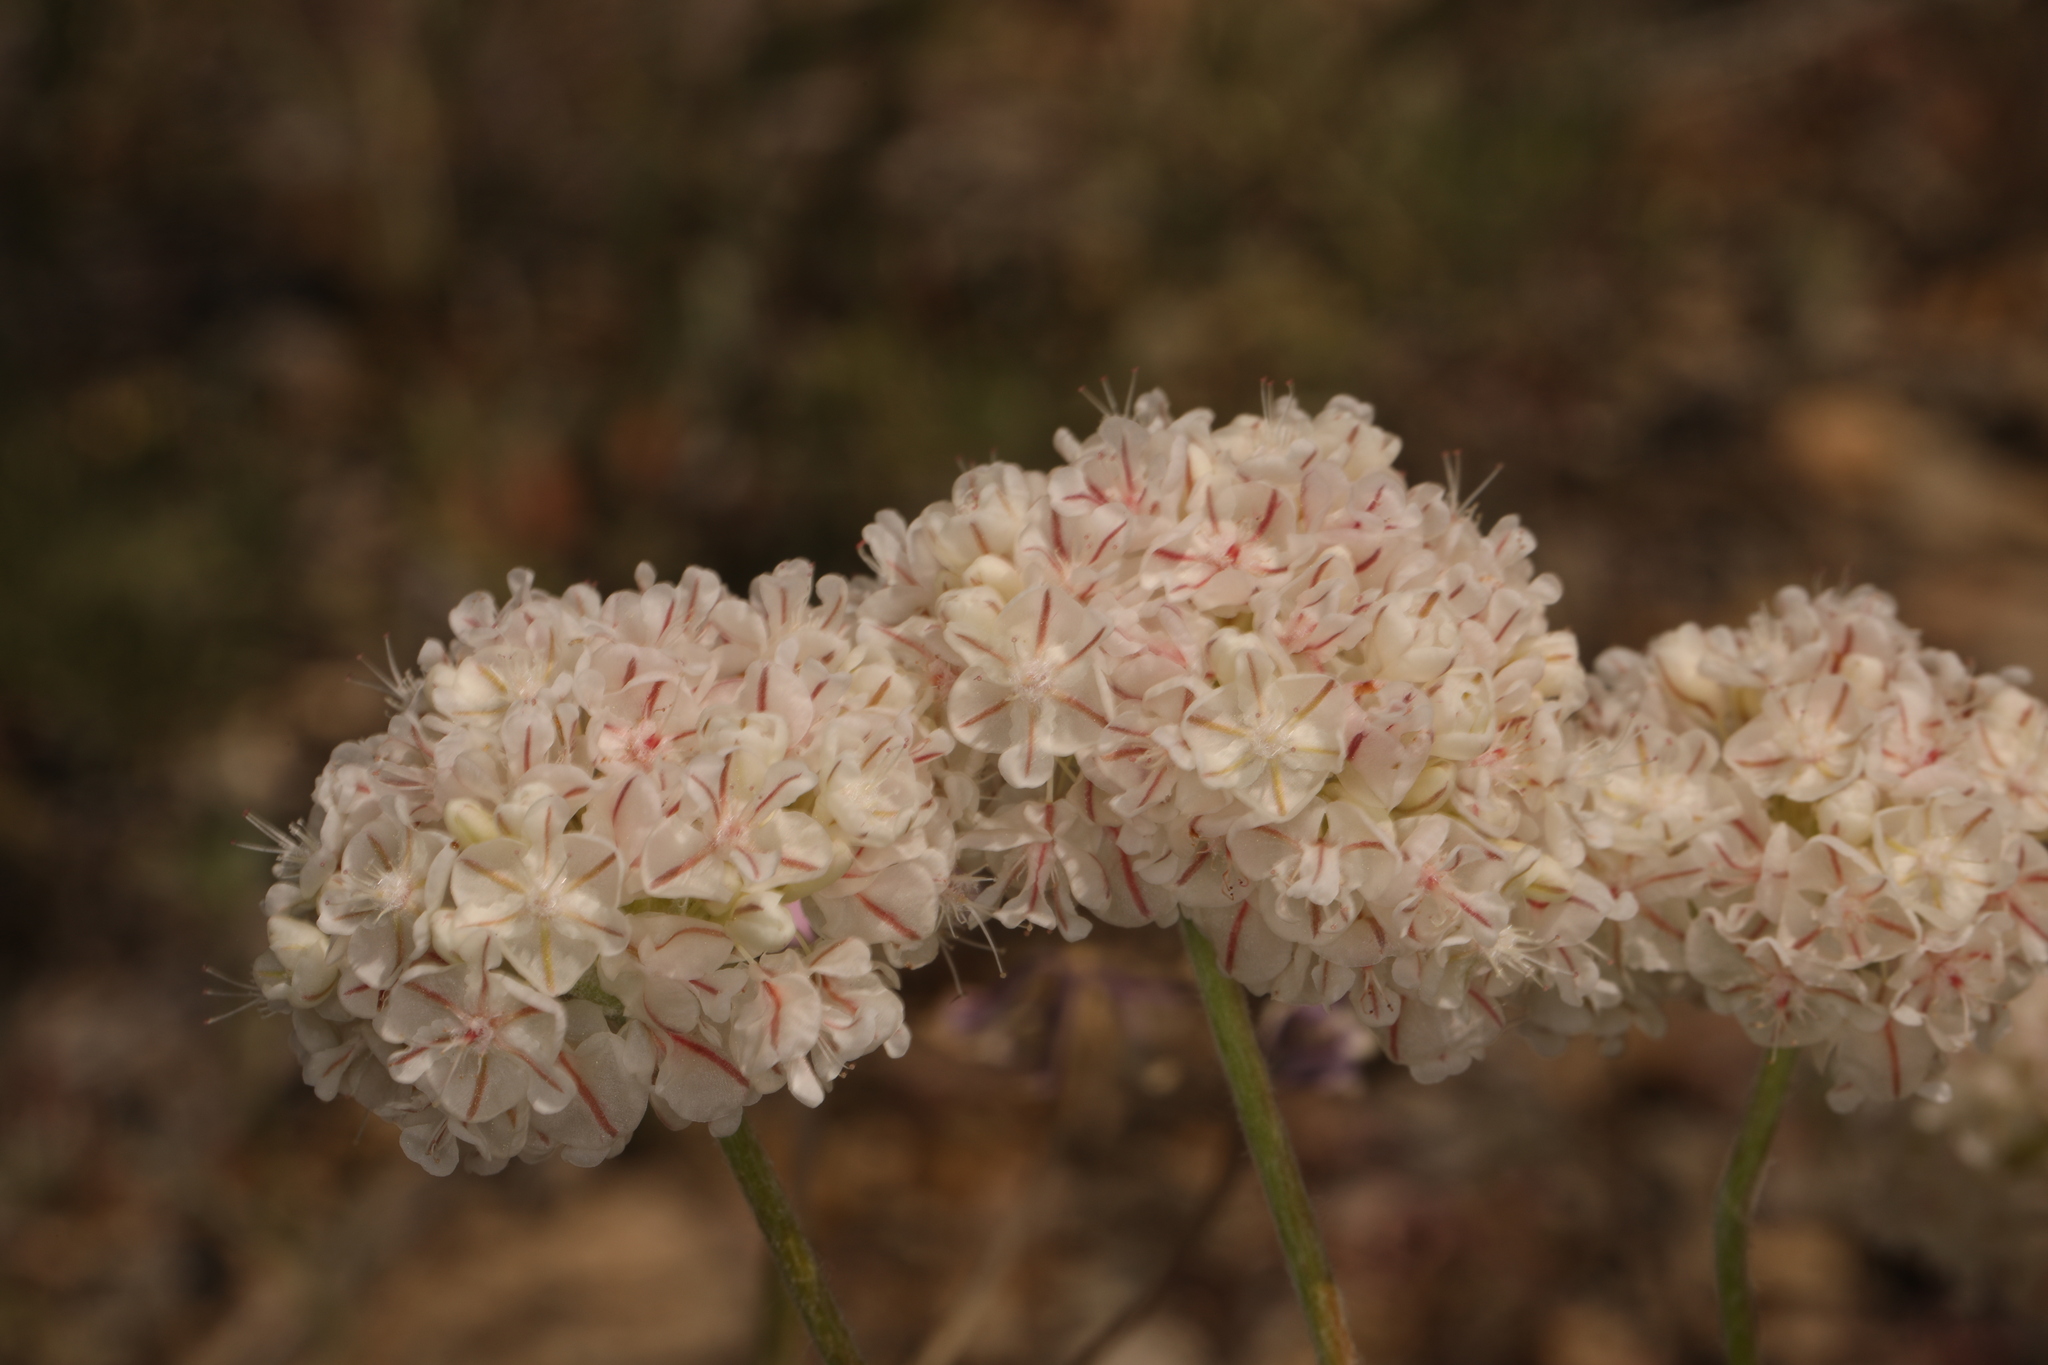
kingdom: Plantae
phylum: Tracheophyta
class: Magnoliopsida
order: Caryophyllales
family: Polygonaceae
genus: Eriogonum
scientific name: Eriogonum ovalifolium
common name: Cushion buckwheat
